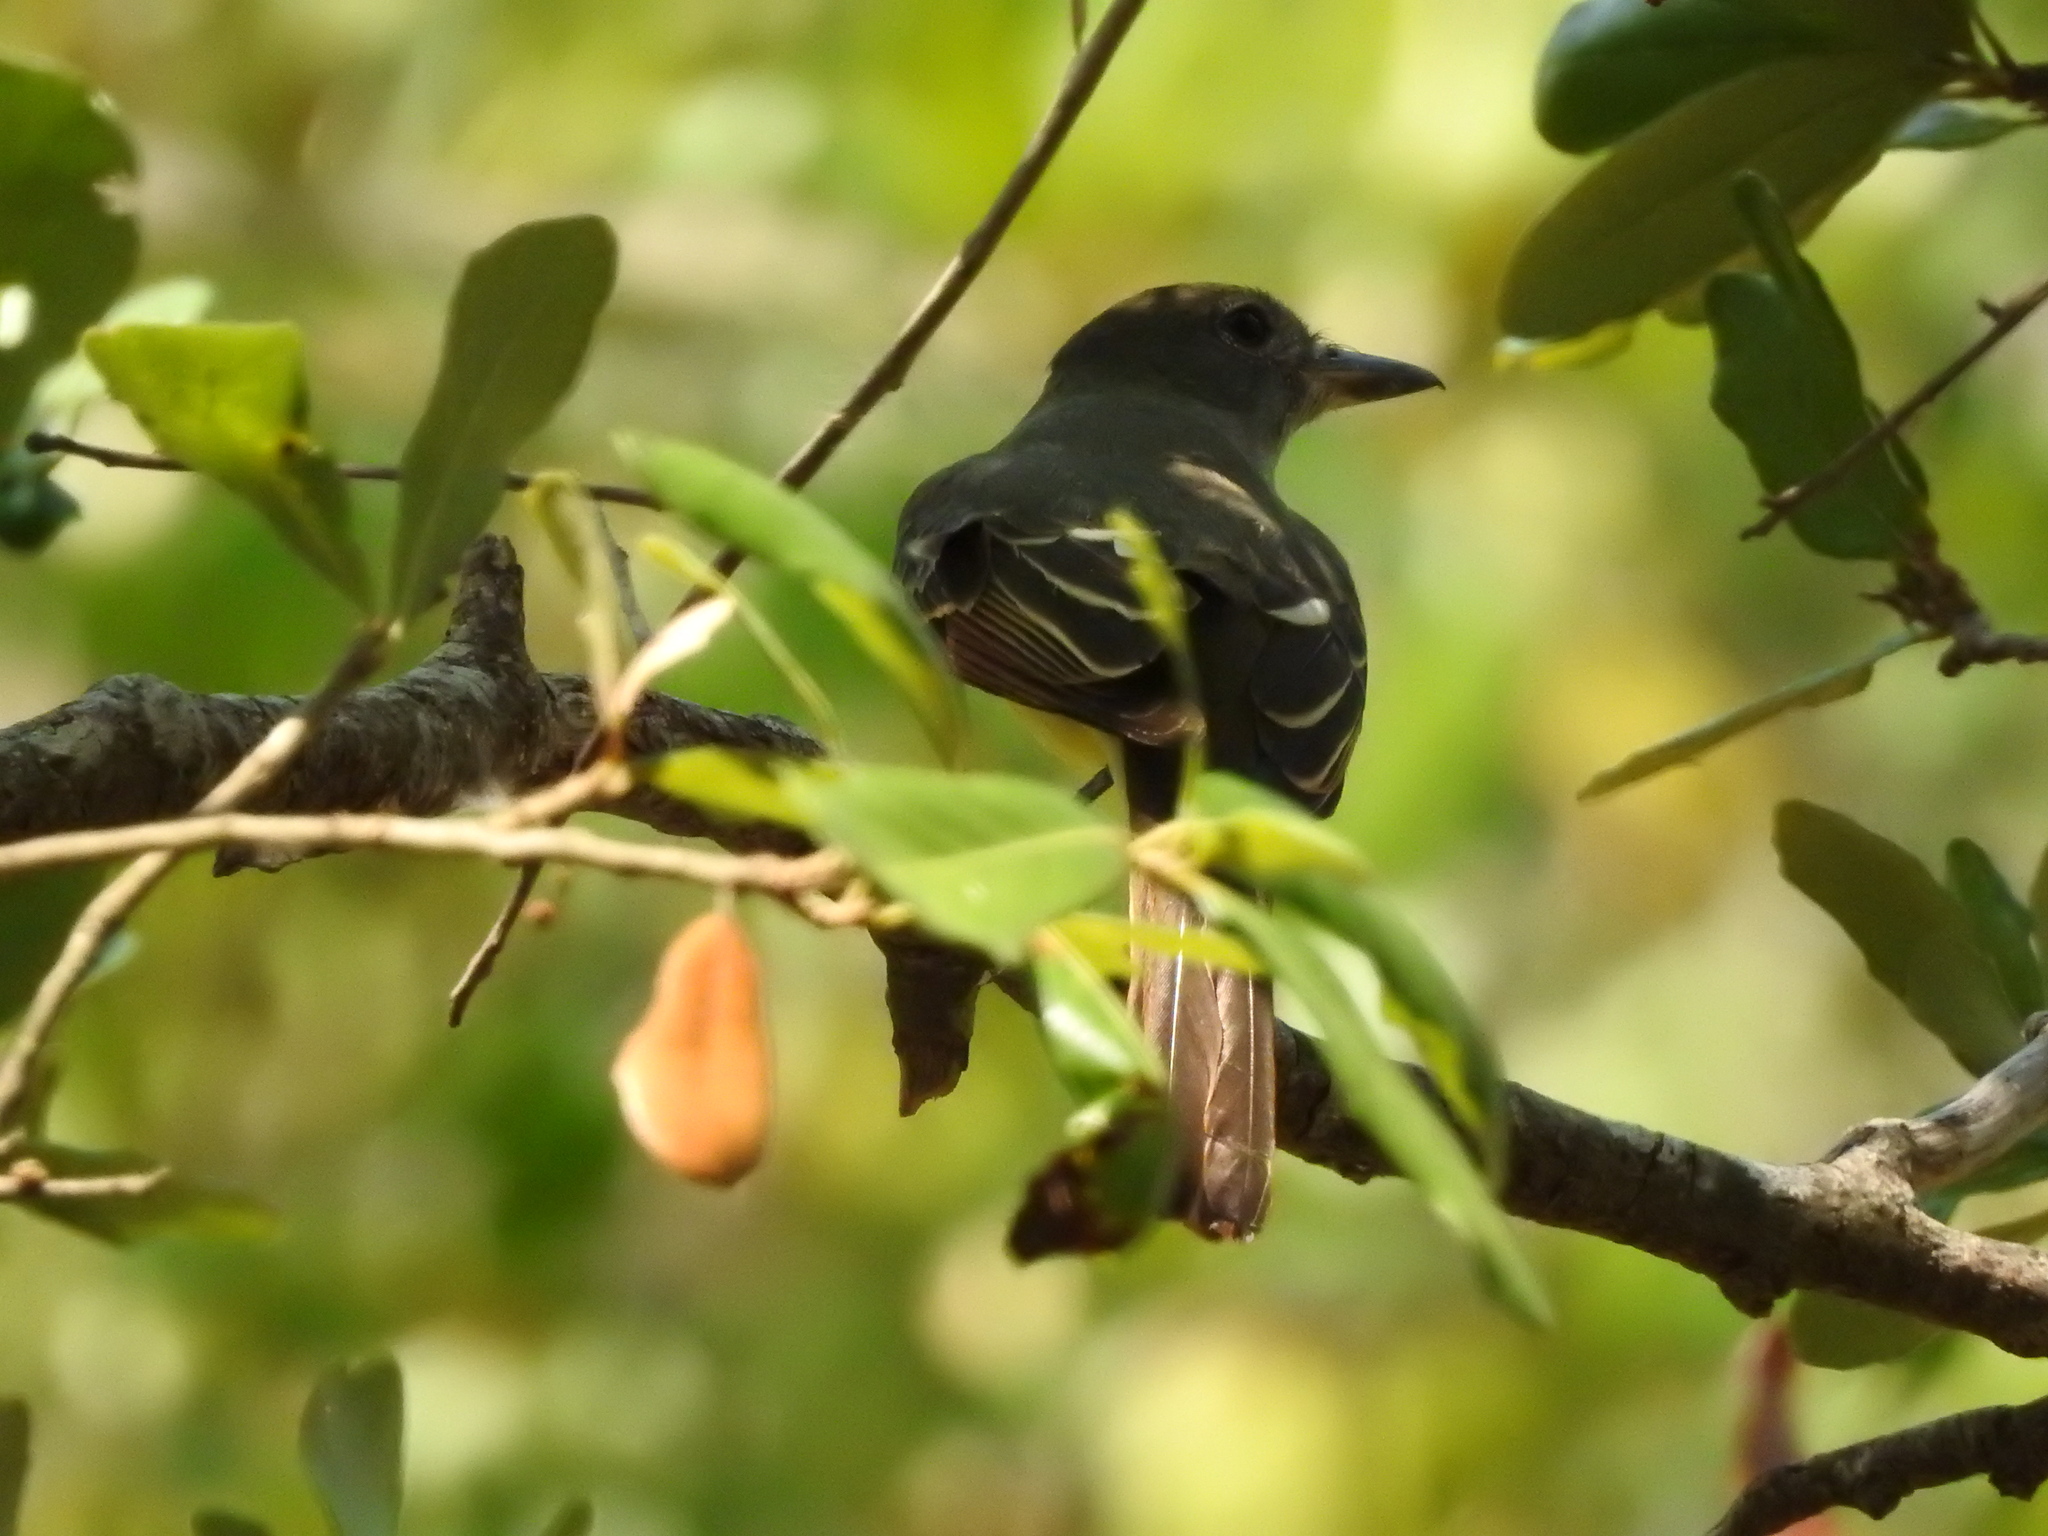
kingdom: Animalia
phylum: Chordata
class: Aves
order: Passeriformes
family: Tyrannidae
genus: Myiarchus
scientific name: Myiarchus crinitus
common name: Great crested flycatcher
